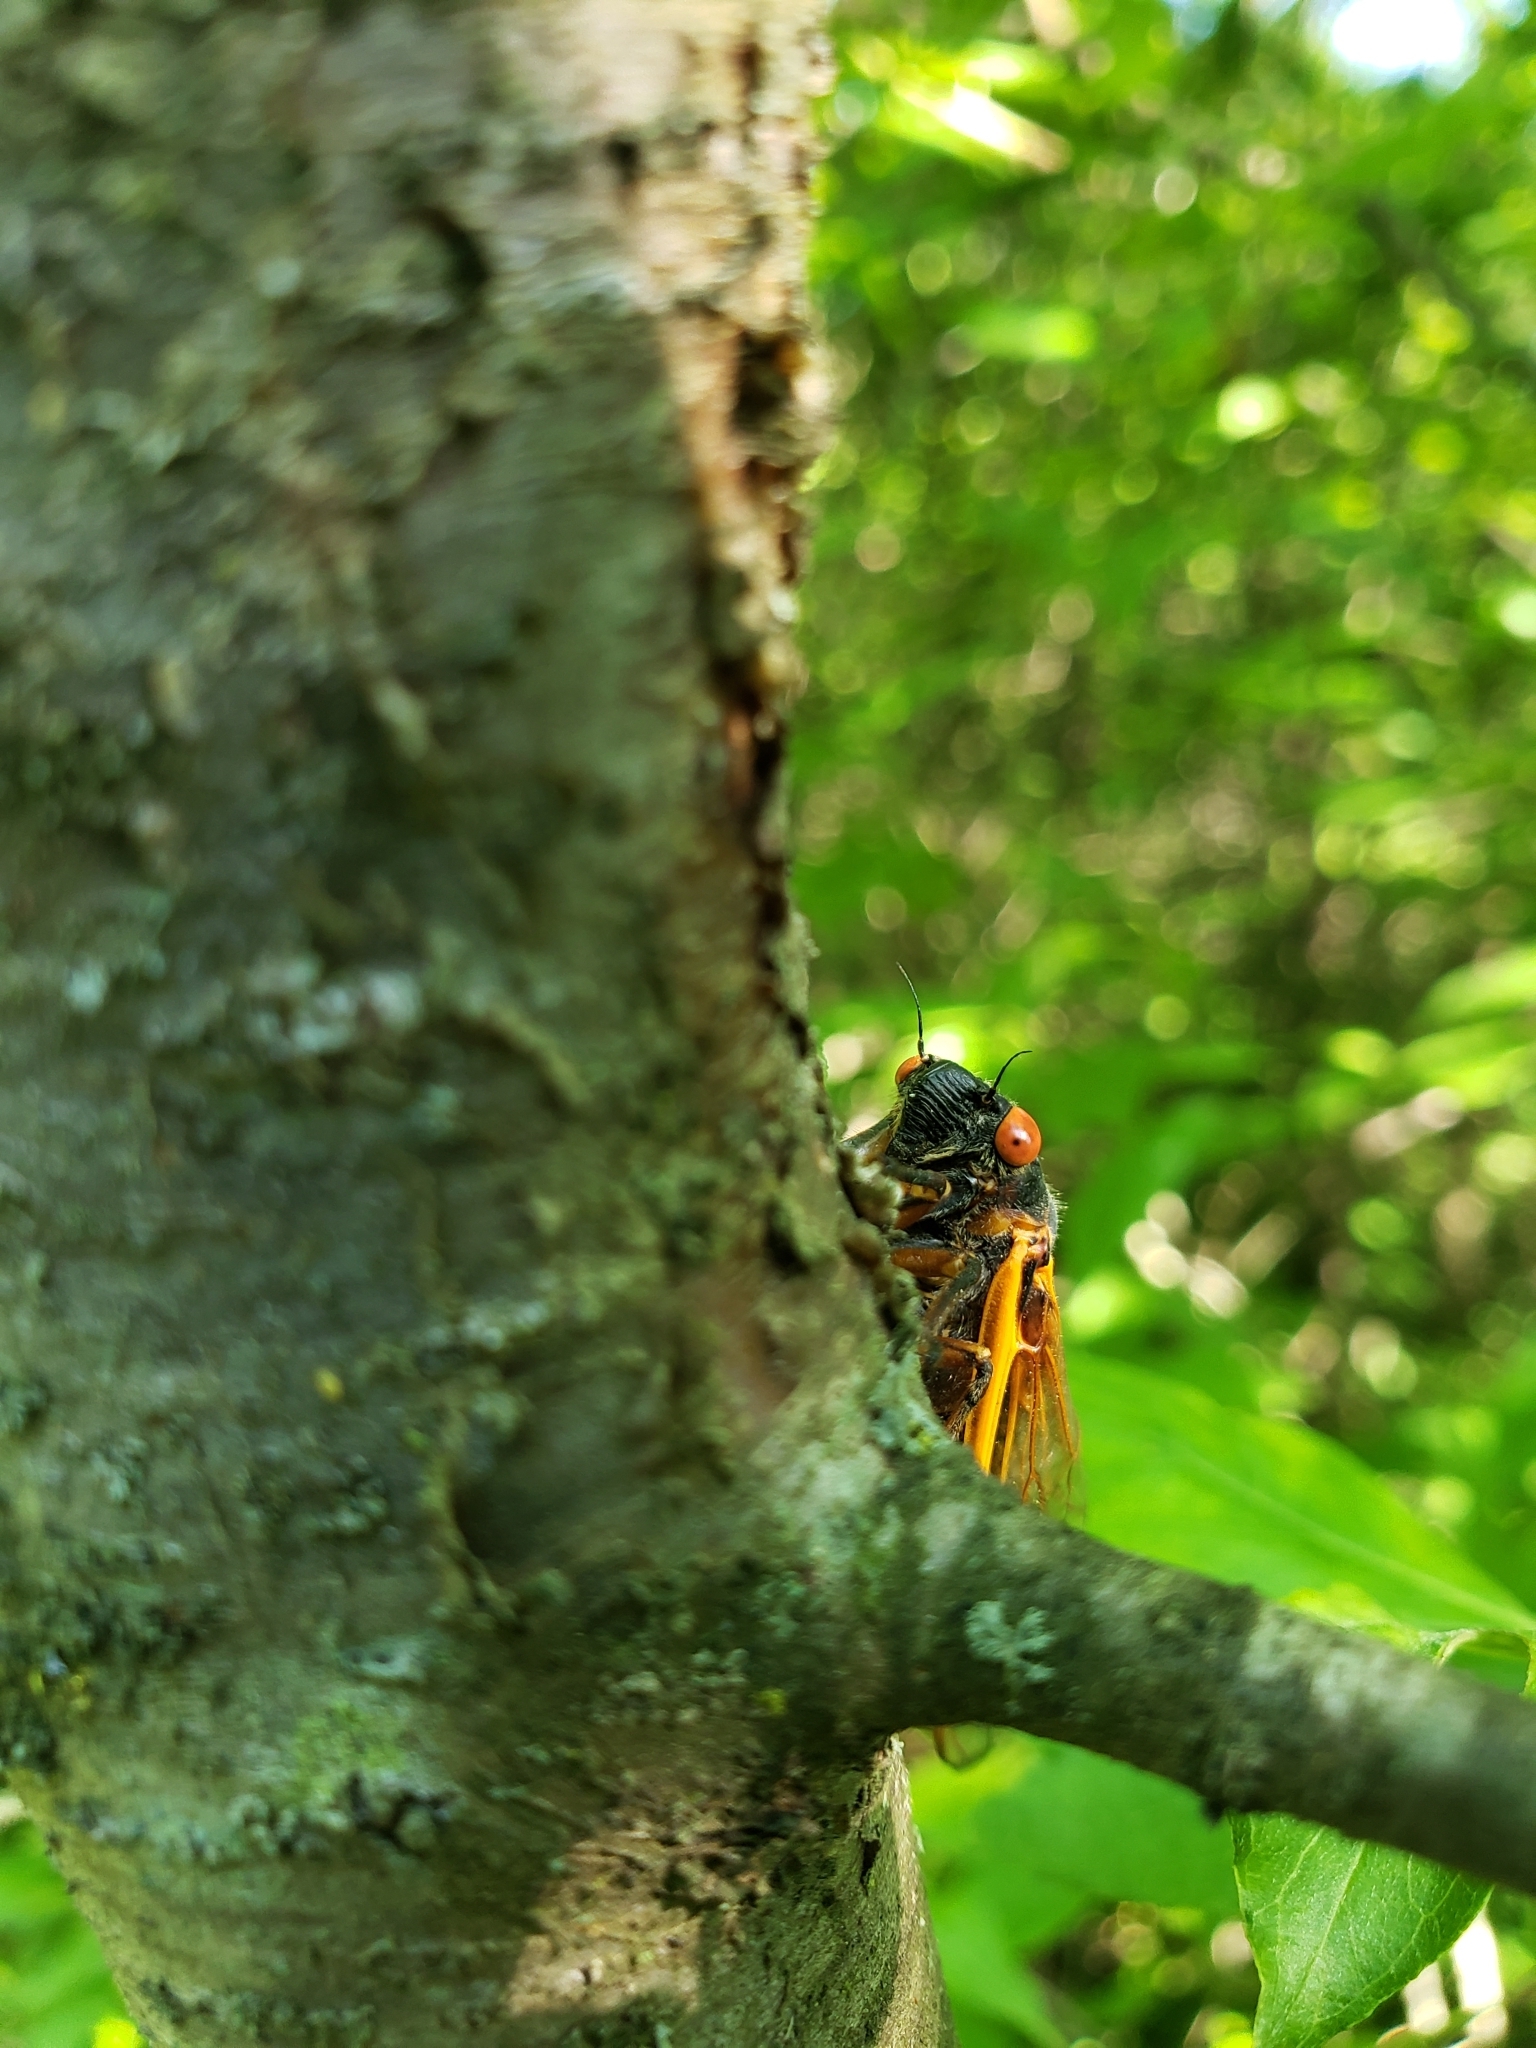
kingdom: Animalia
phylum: Arthropoda
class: Insecta
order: Hemiptera
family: Cicadidae
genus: Magicicada
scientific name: Magicicada septendecim
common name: Periodical cicada
